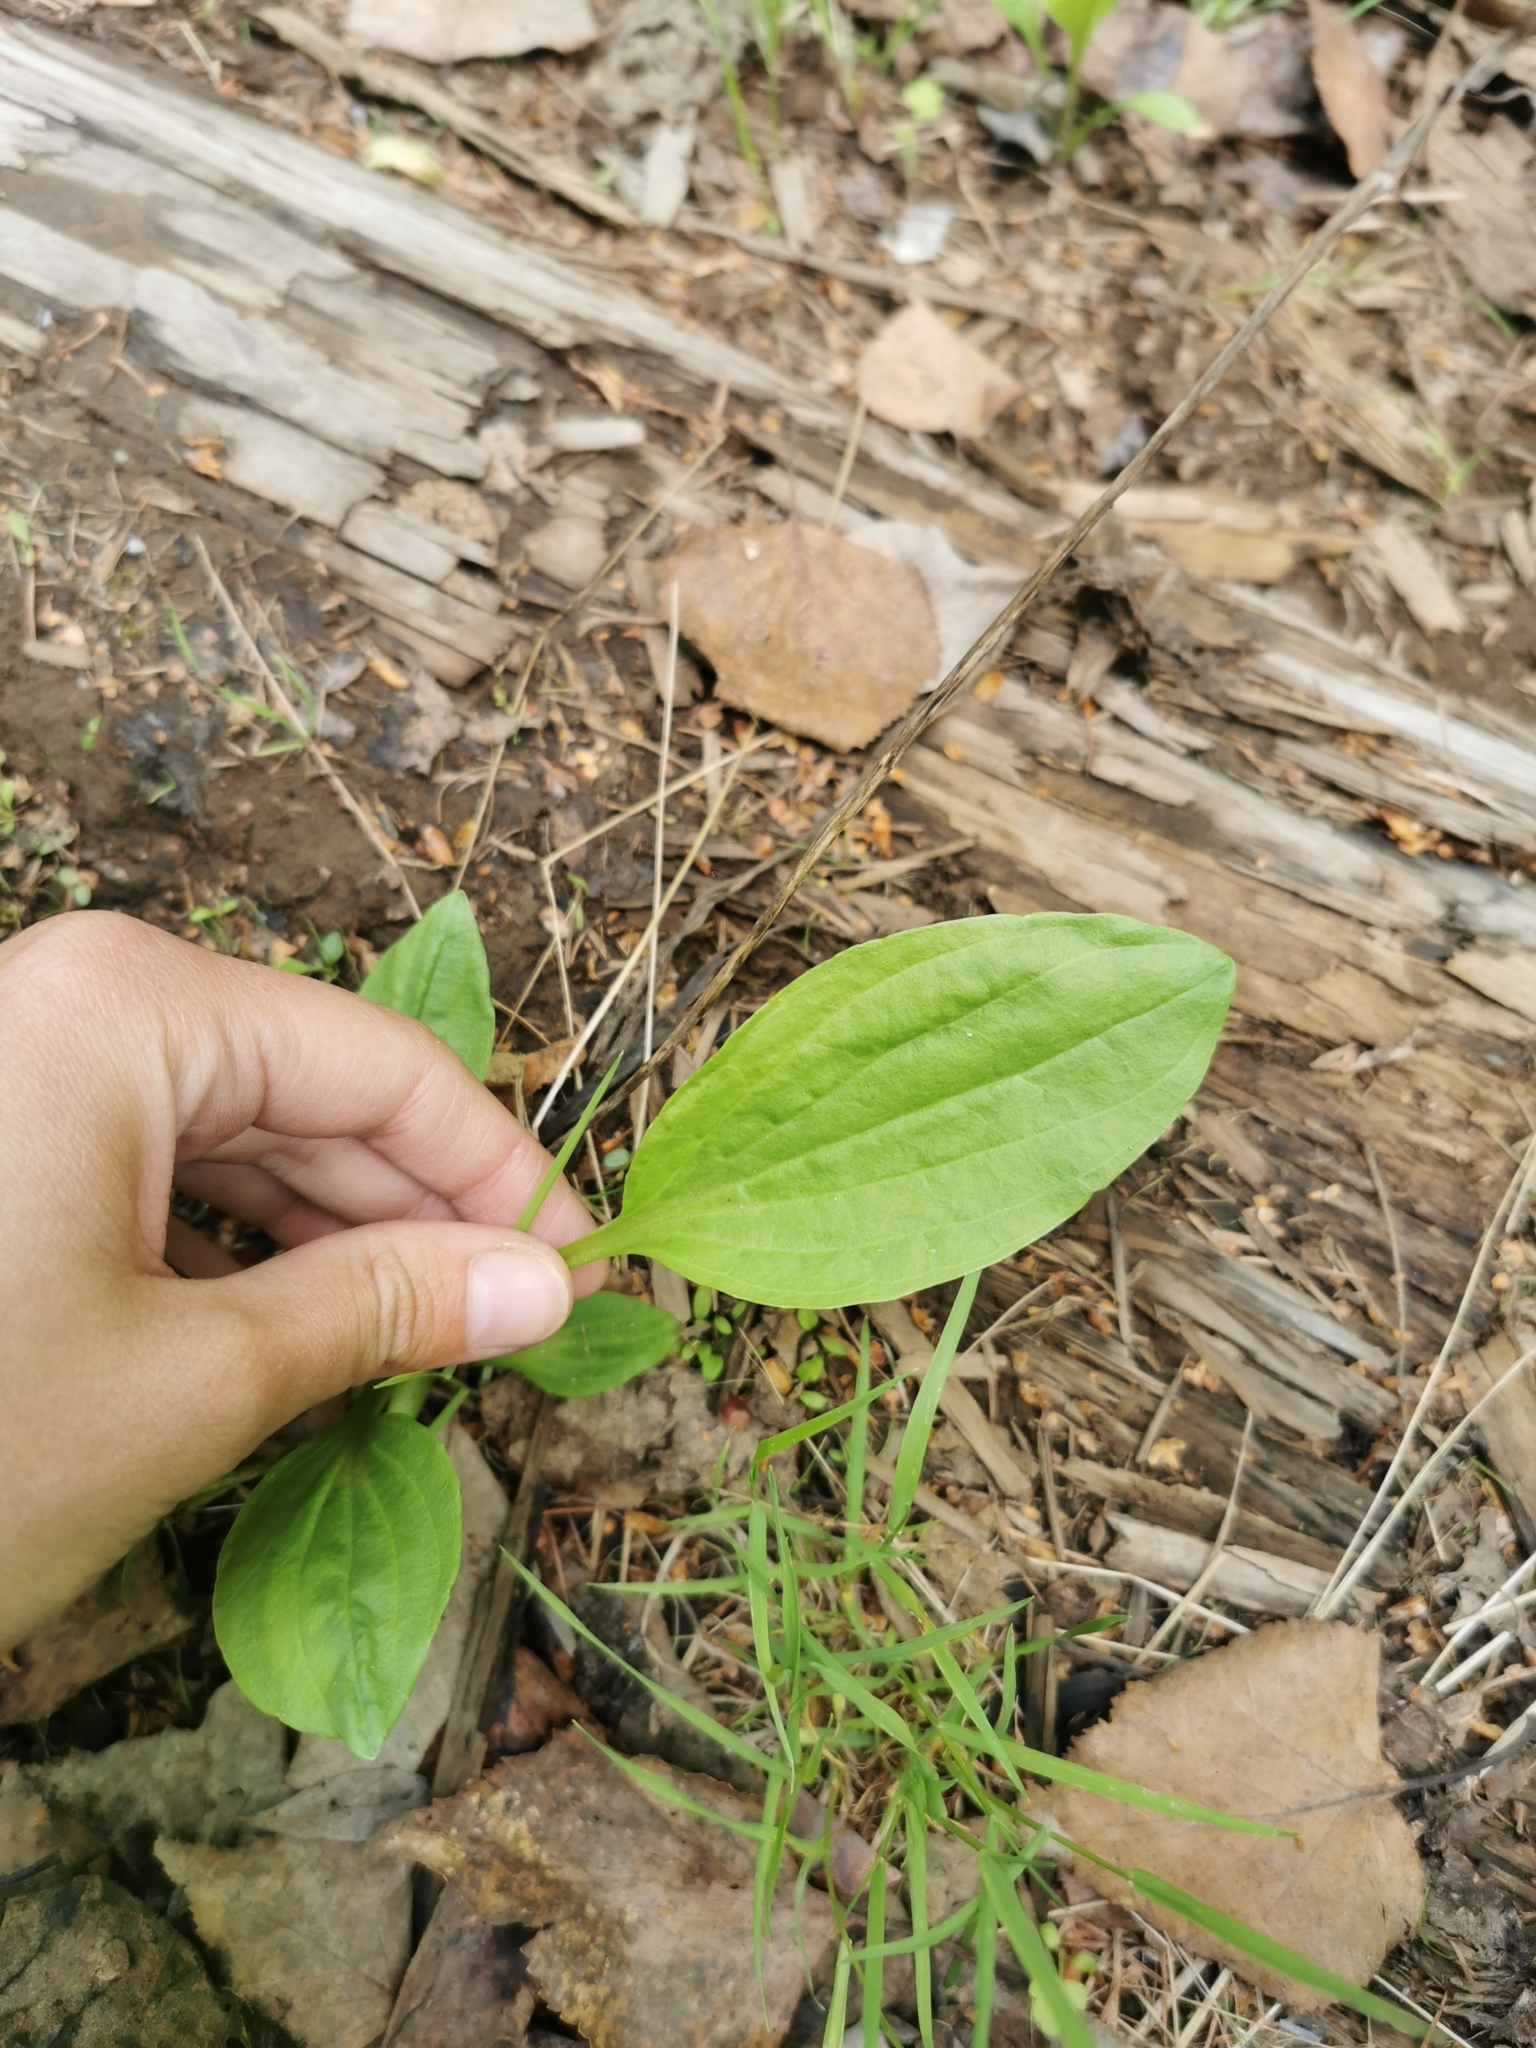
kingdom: Plantae
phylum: Tracheophyta
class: Magnoliopsida
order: Lamiales
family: Plantaginaceae
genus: Plantago
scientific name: Plantago major
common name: Common plantain
